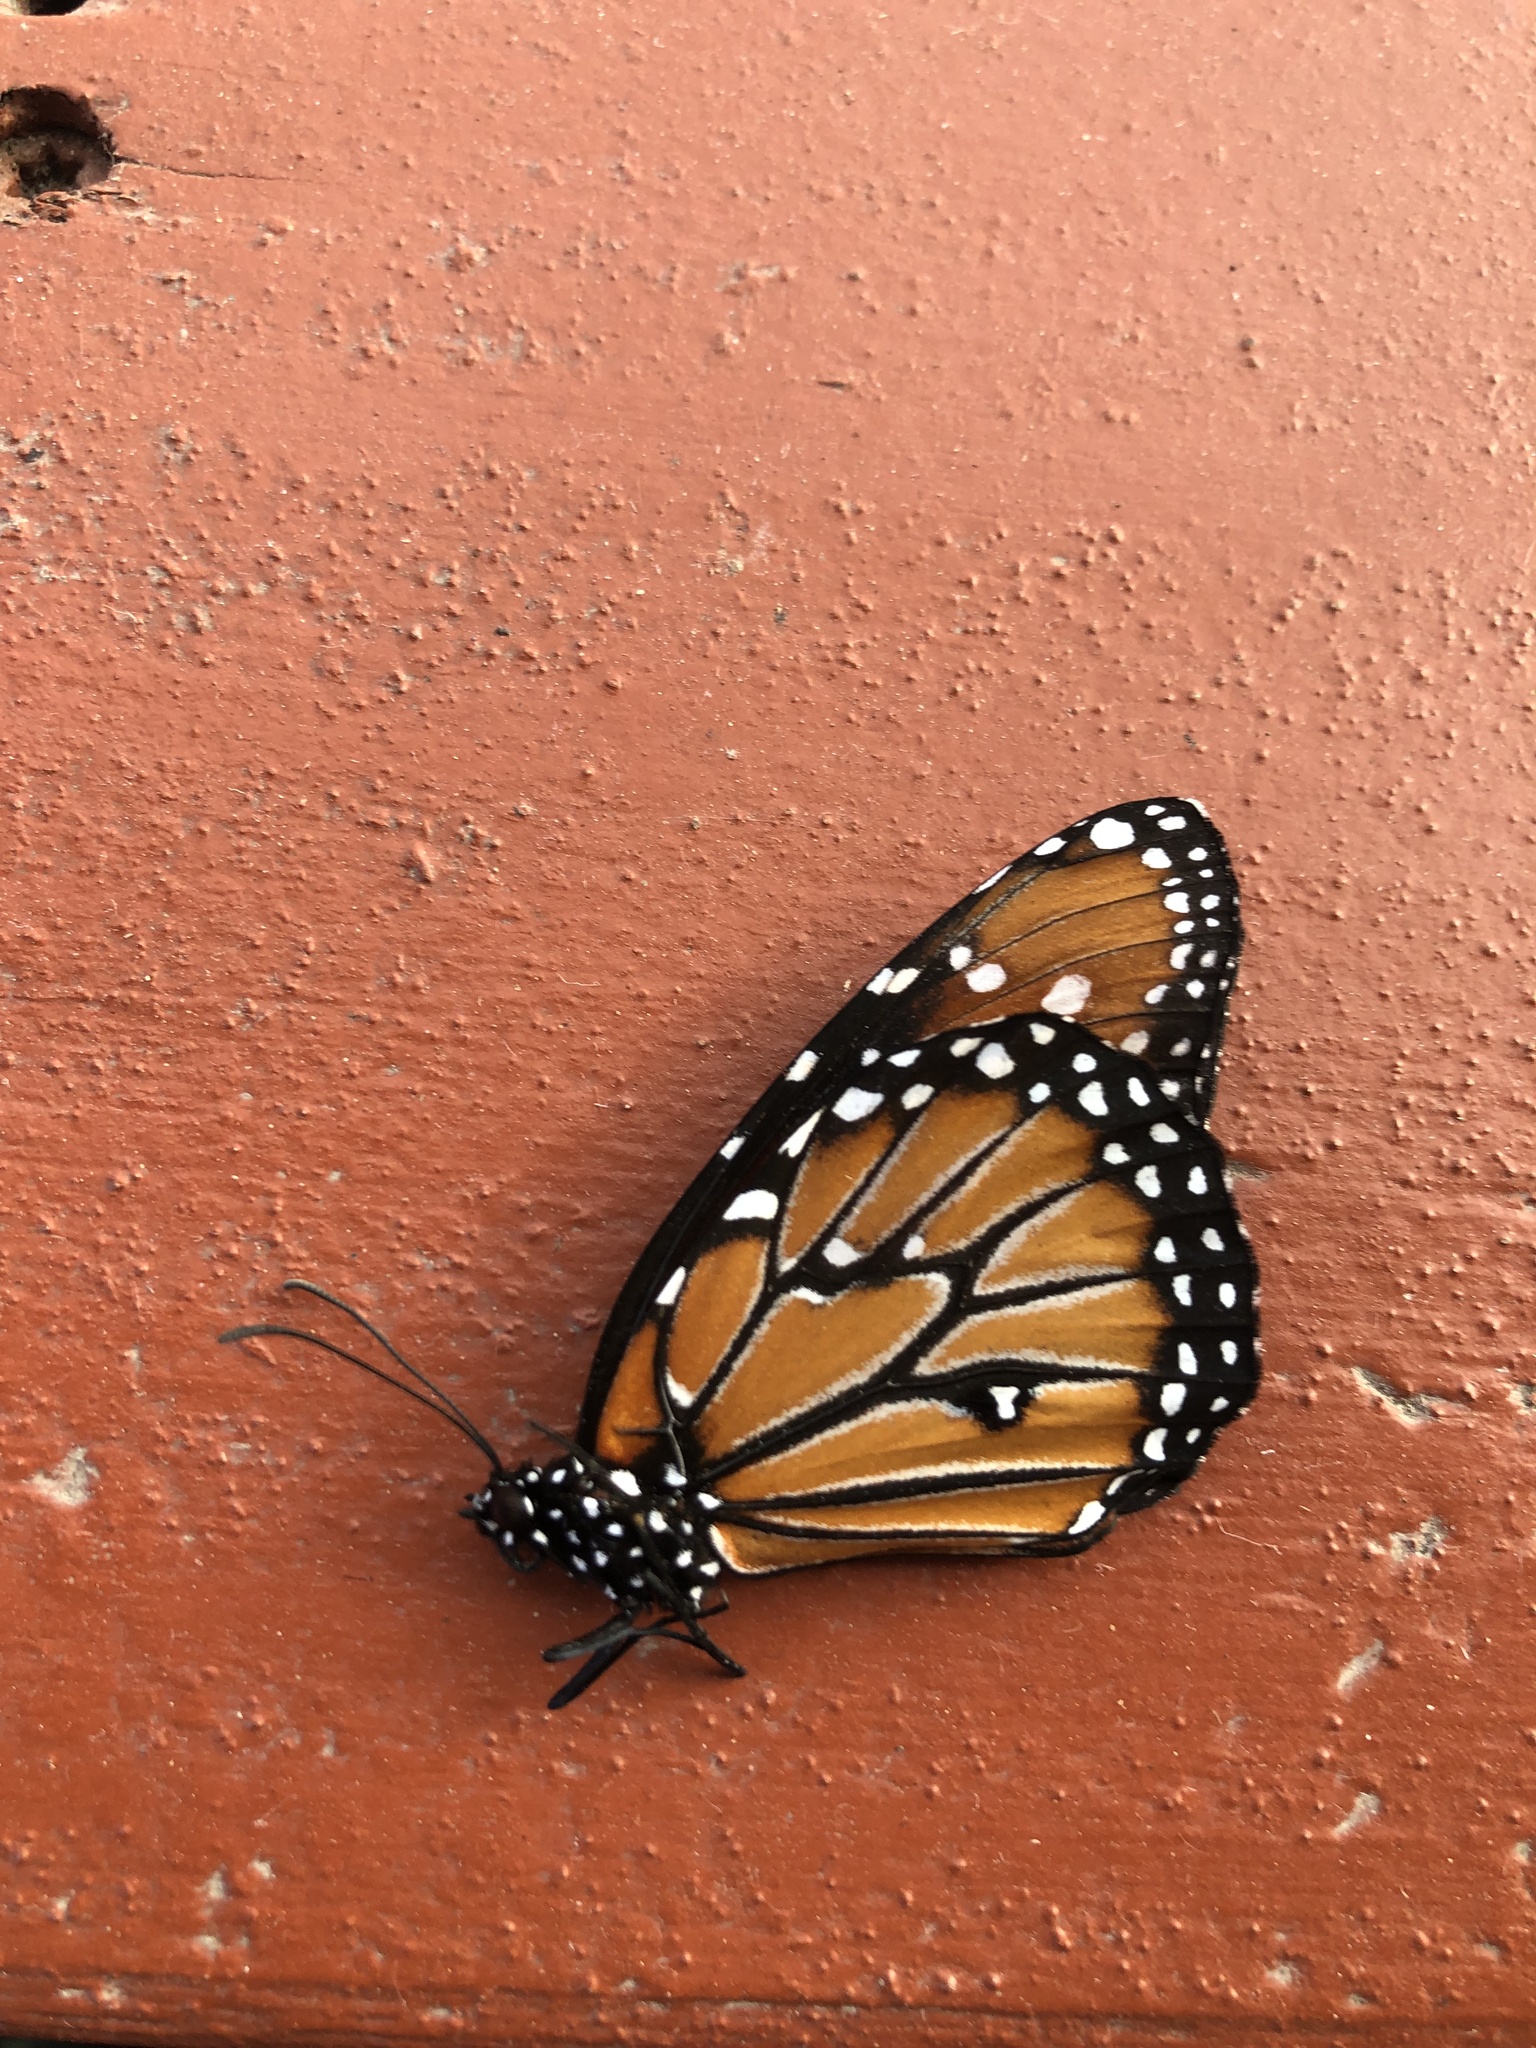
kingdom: Animalia
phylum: Arthropoda
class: Insecta
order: Lepidoptera
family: Nymphalidae
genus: Danaus
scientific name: Danaus gilippus
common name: Queen
